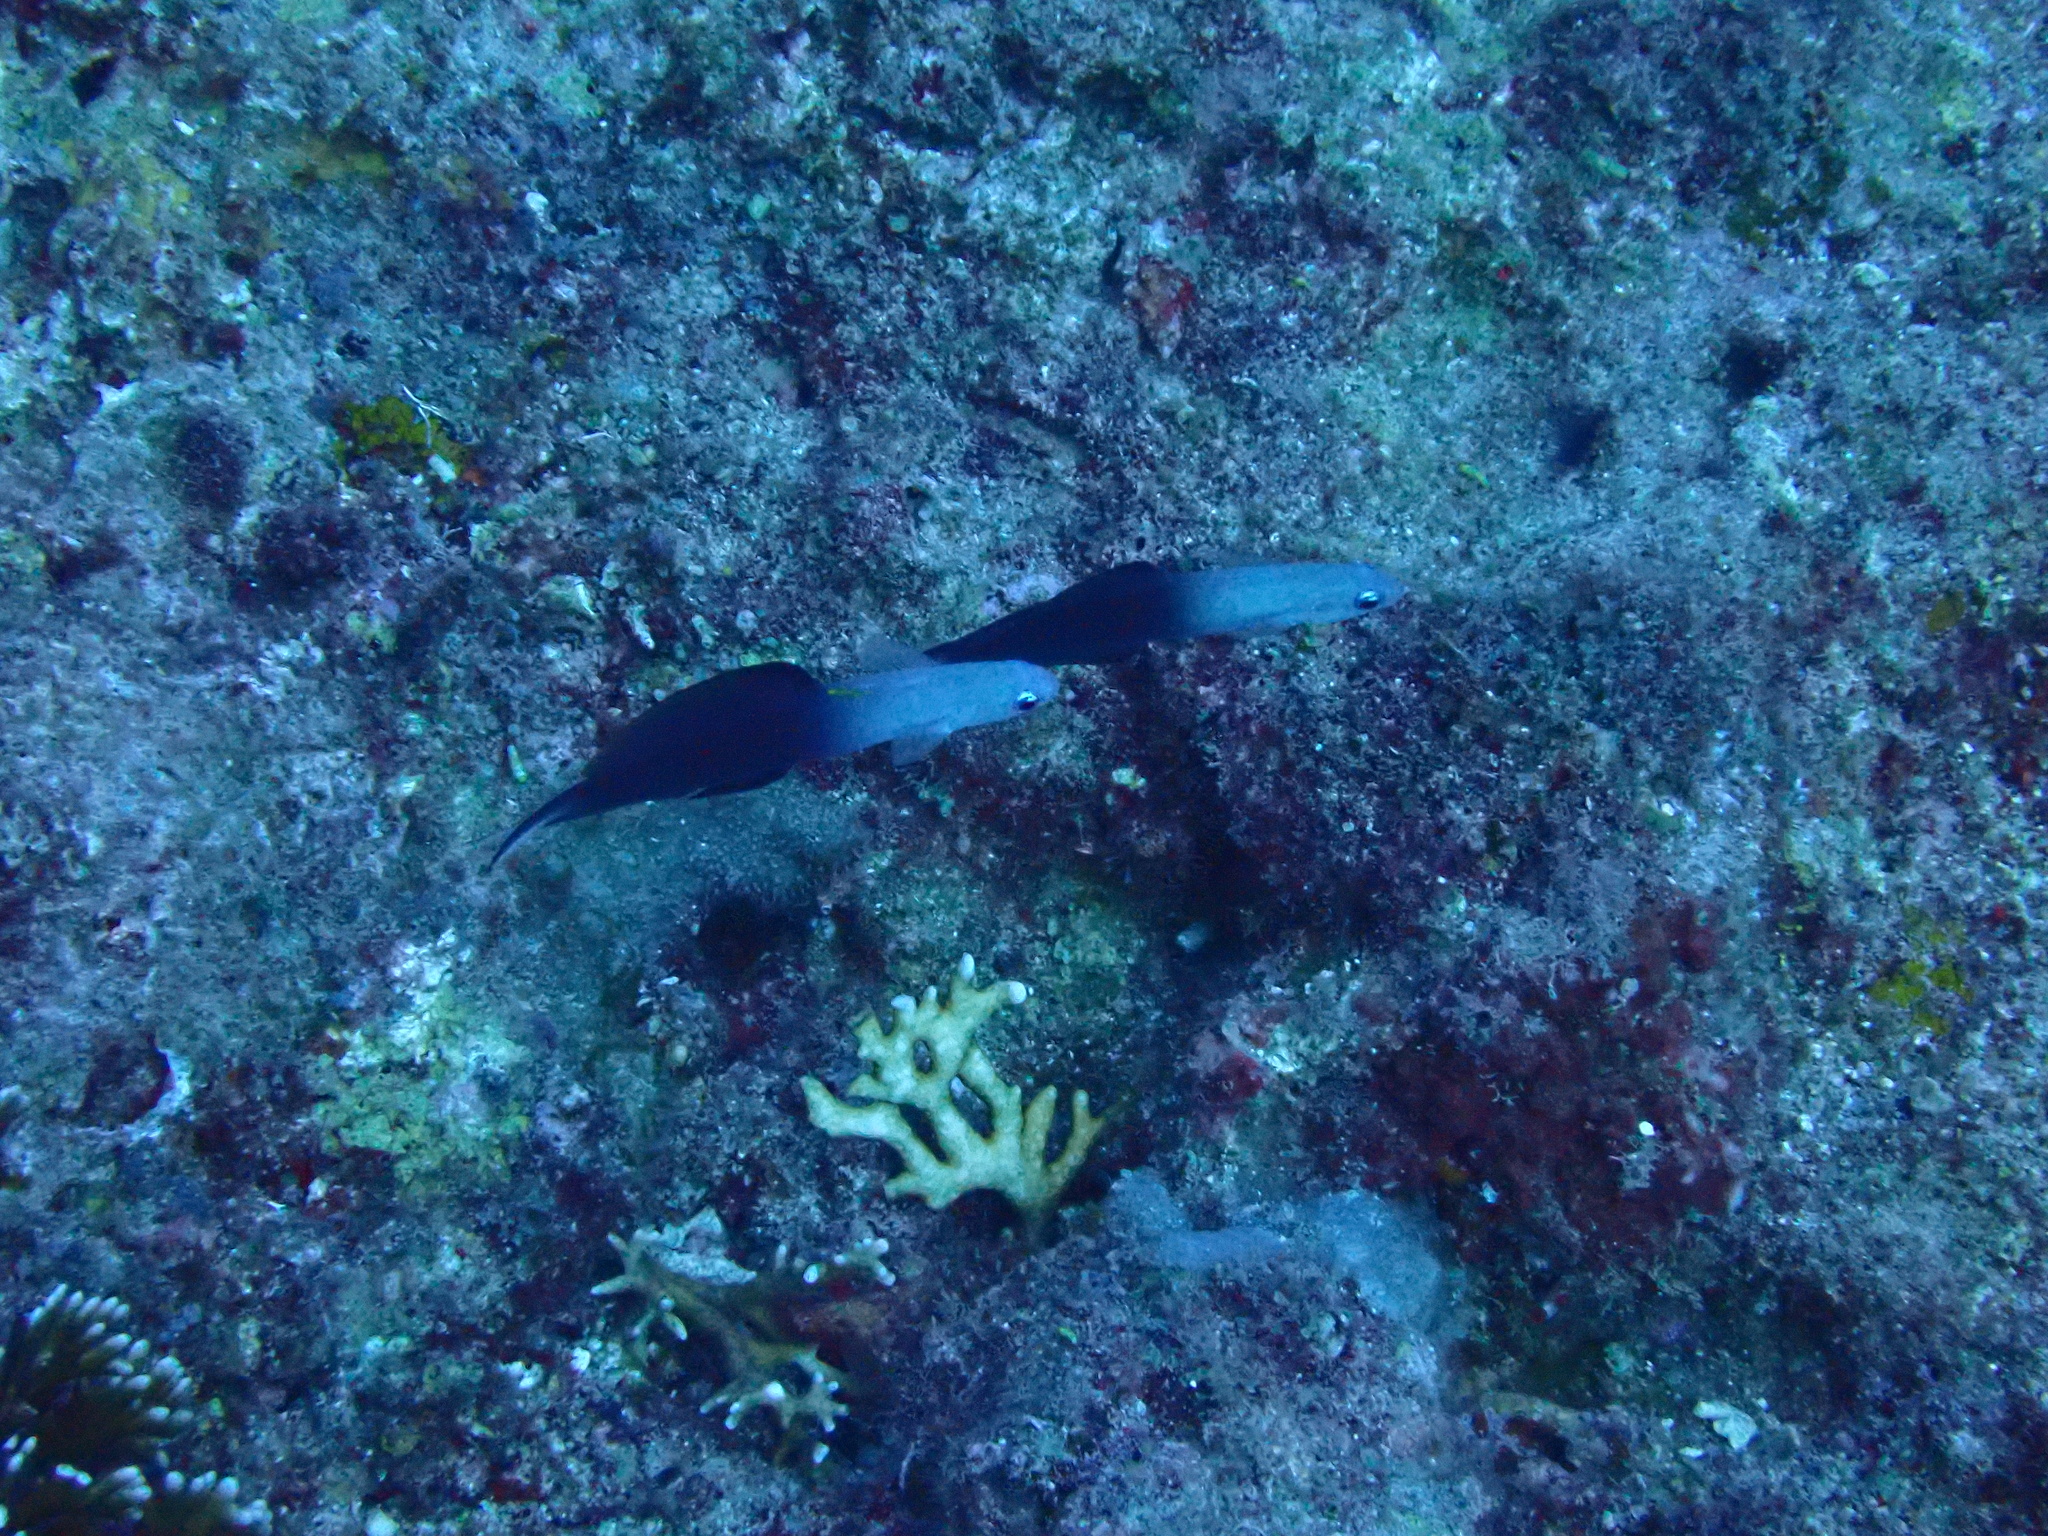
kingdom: Animalia
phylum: Chordata
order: Perciformes
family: Microdesmidae
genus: Ptereleotris
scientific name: Ptereleotris evides
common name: Blackfin dartfish
